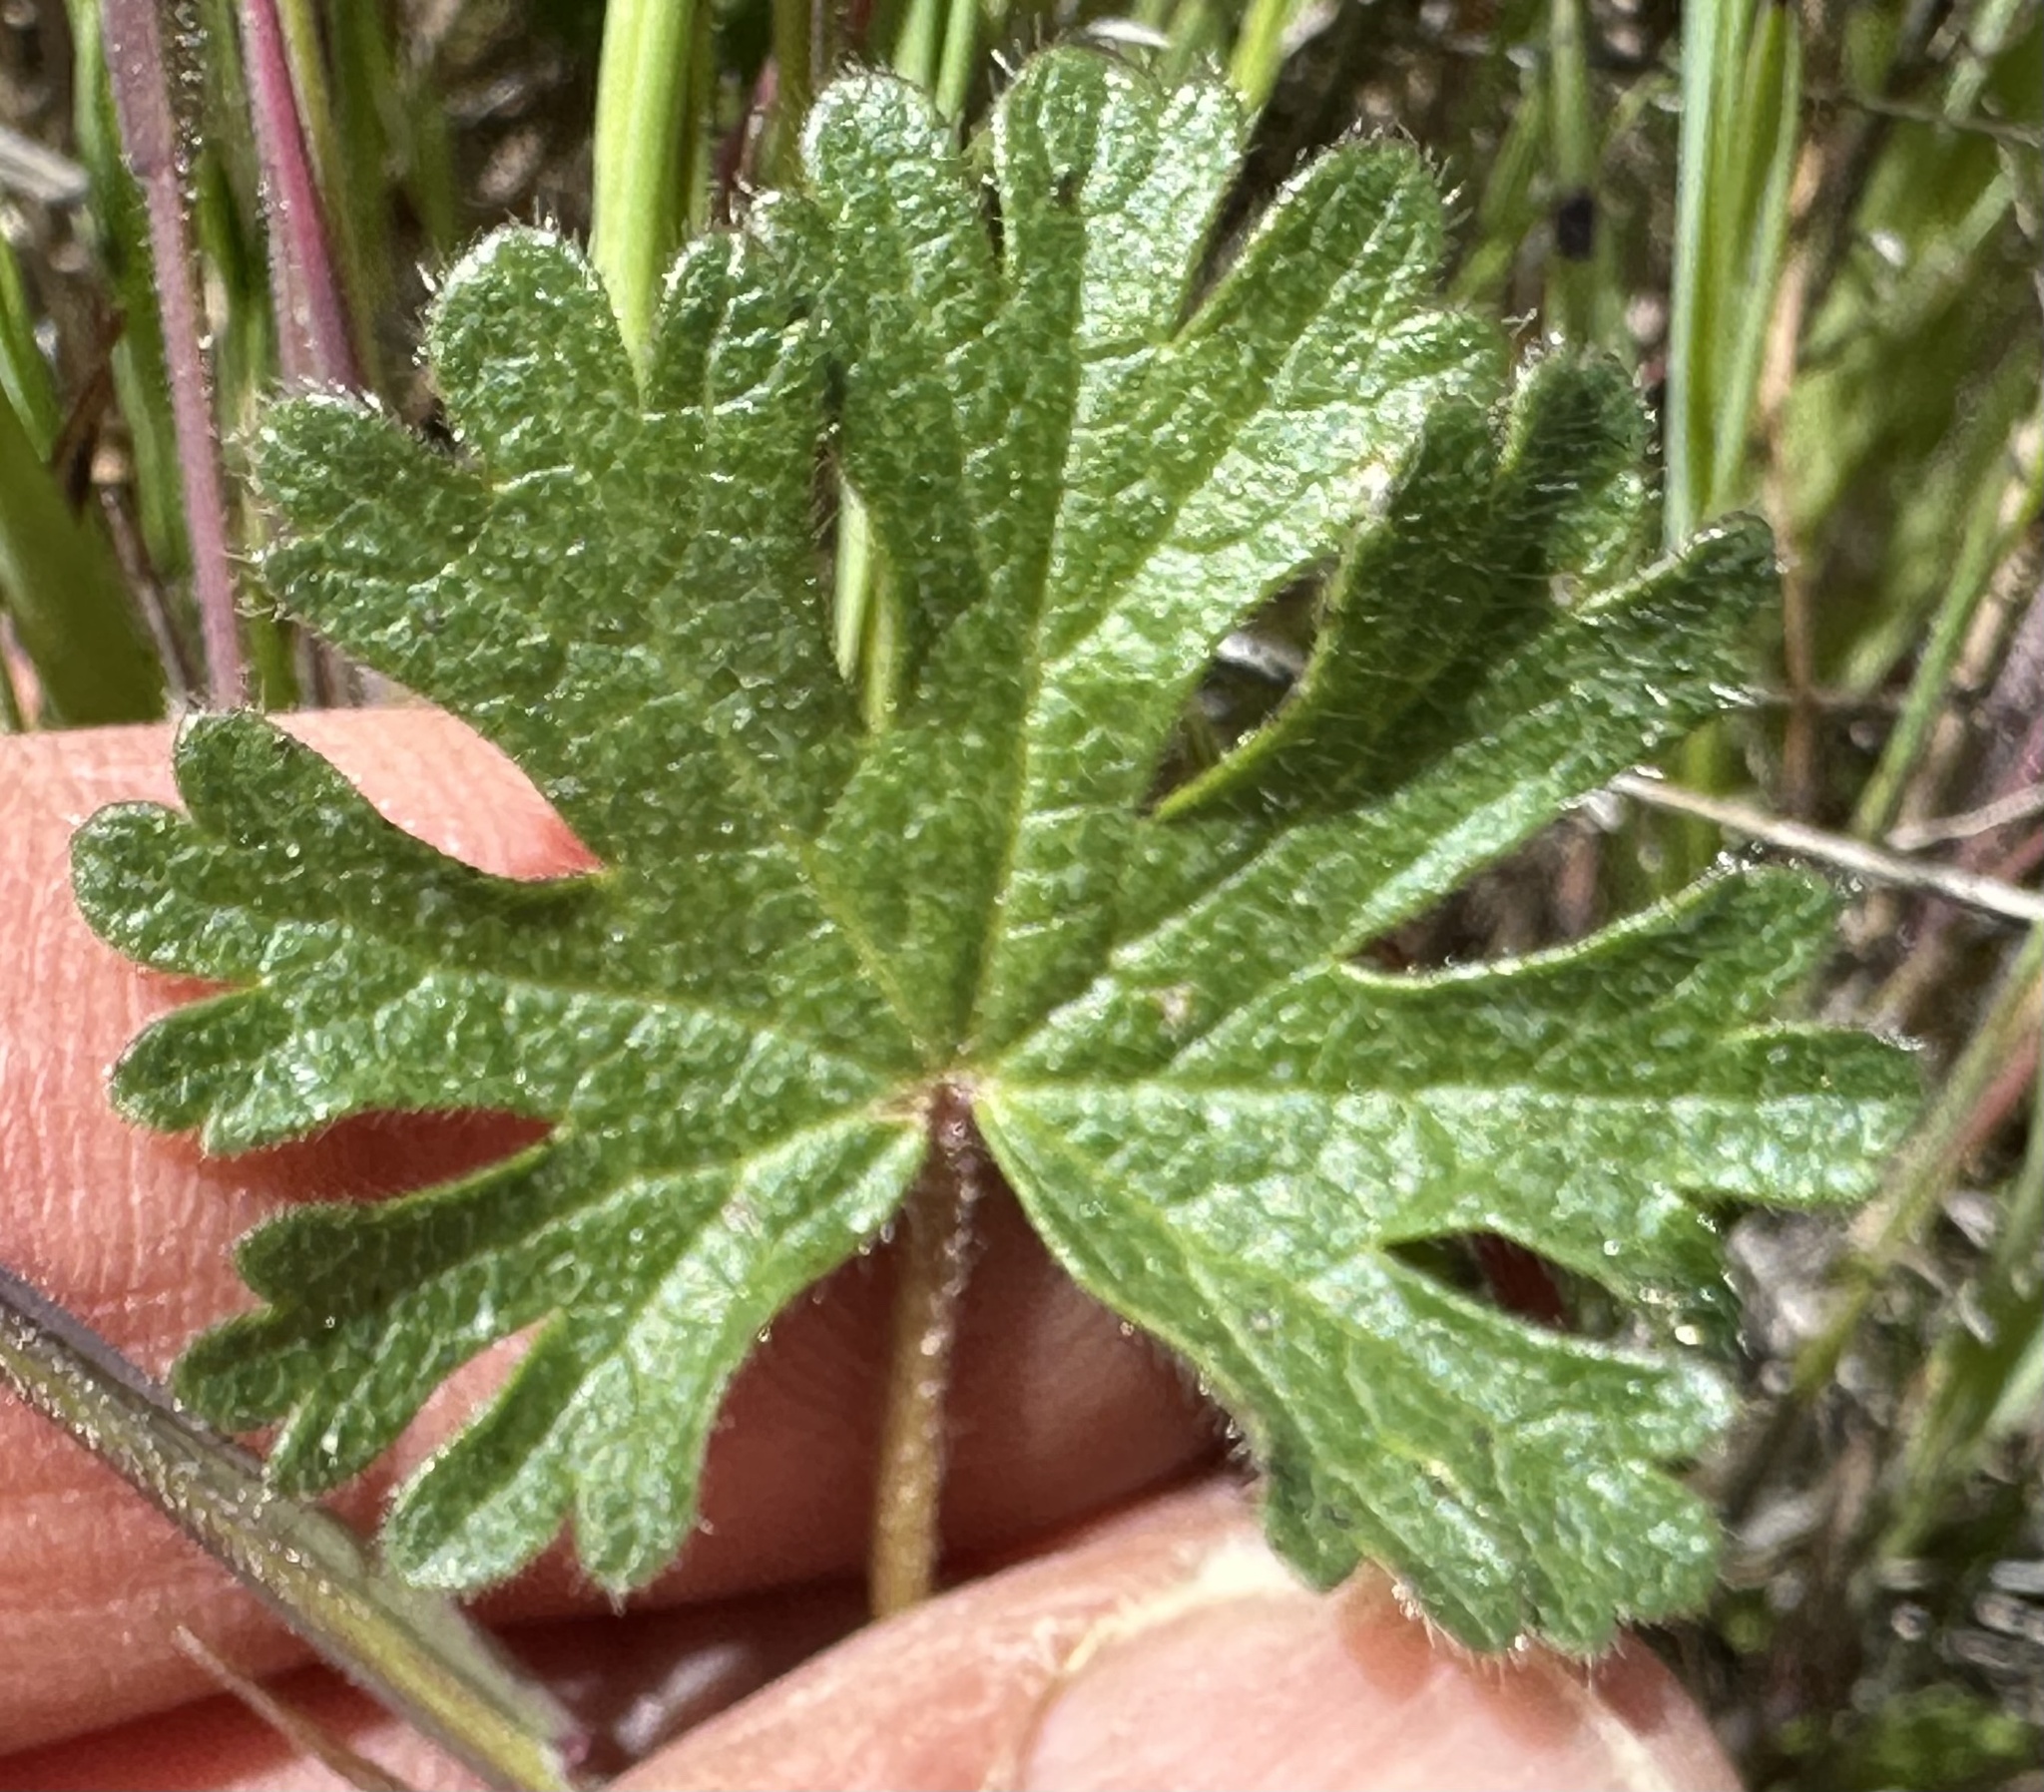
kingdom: Plantae
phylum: Tracheophyta
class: Magnoliopsida
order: Malvales
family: Malvaceae
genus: Sidalcea
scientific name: Sidalcea malviflora
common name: Greek mallow
